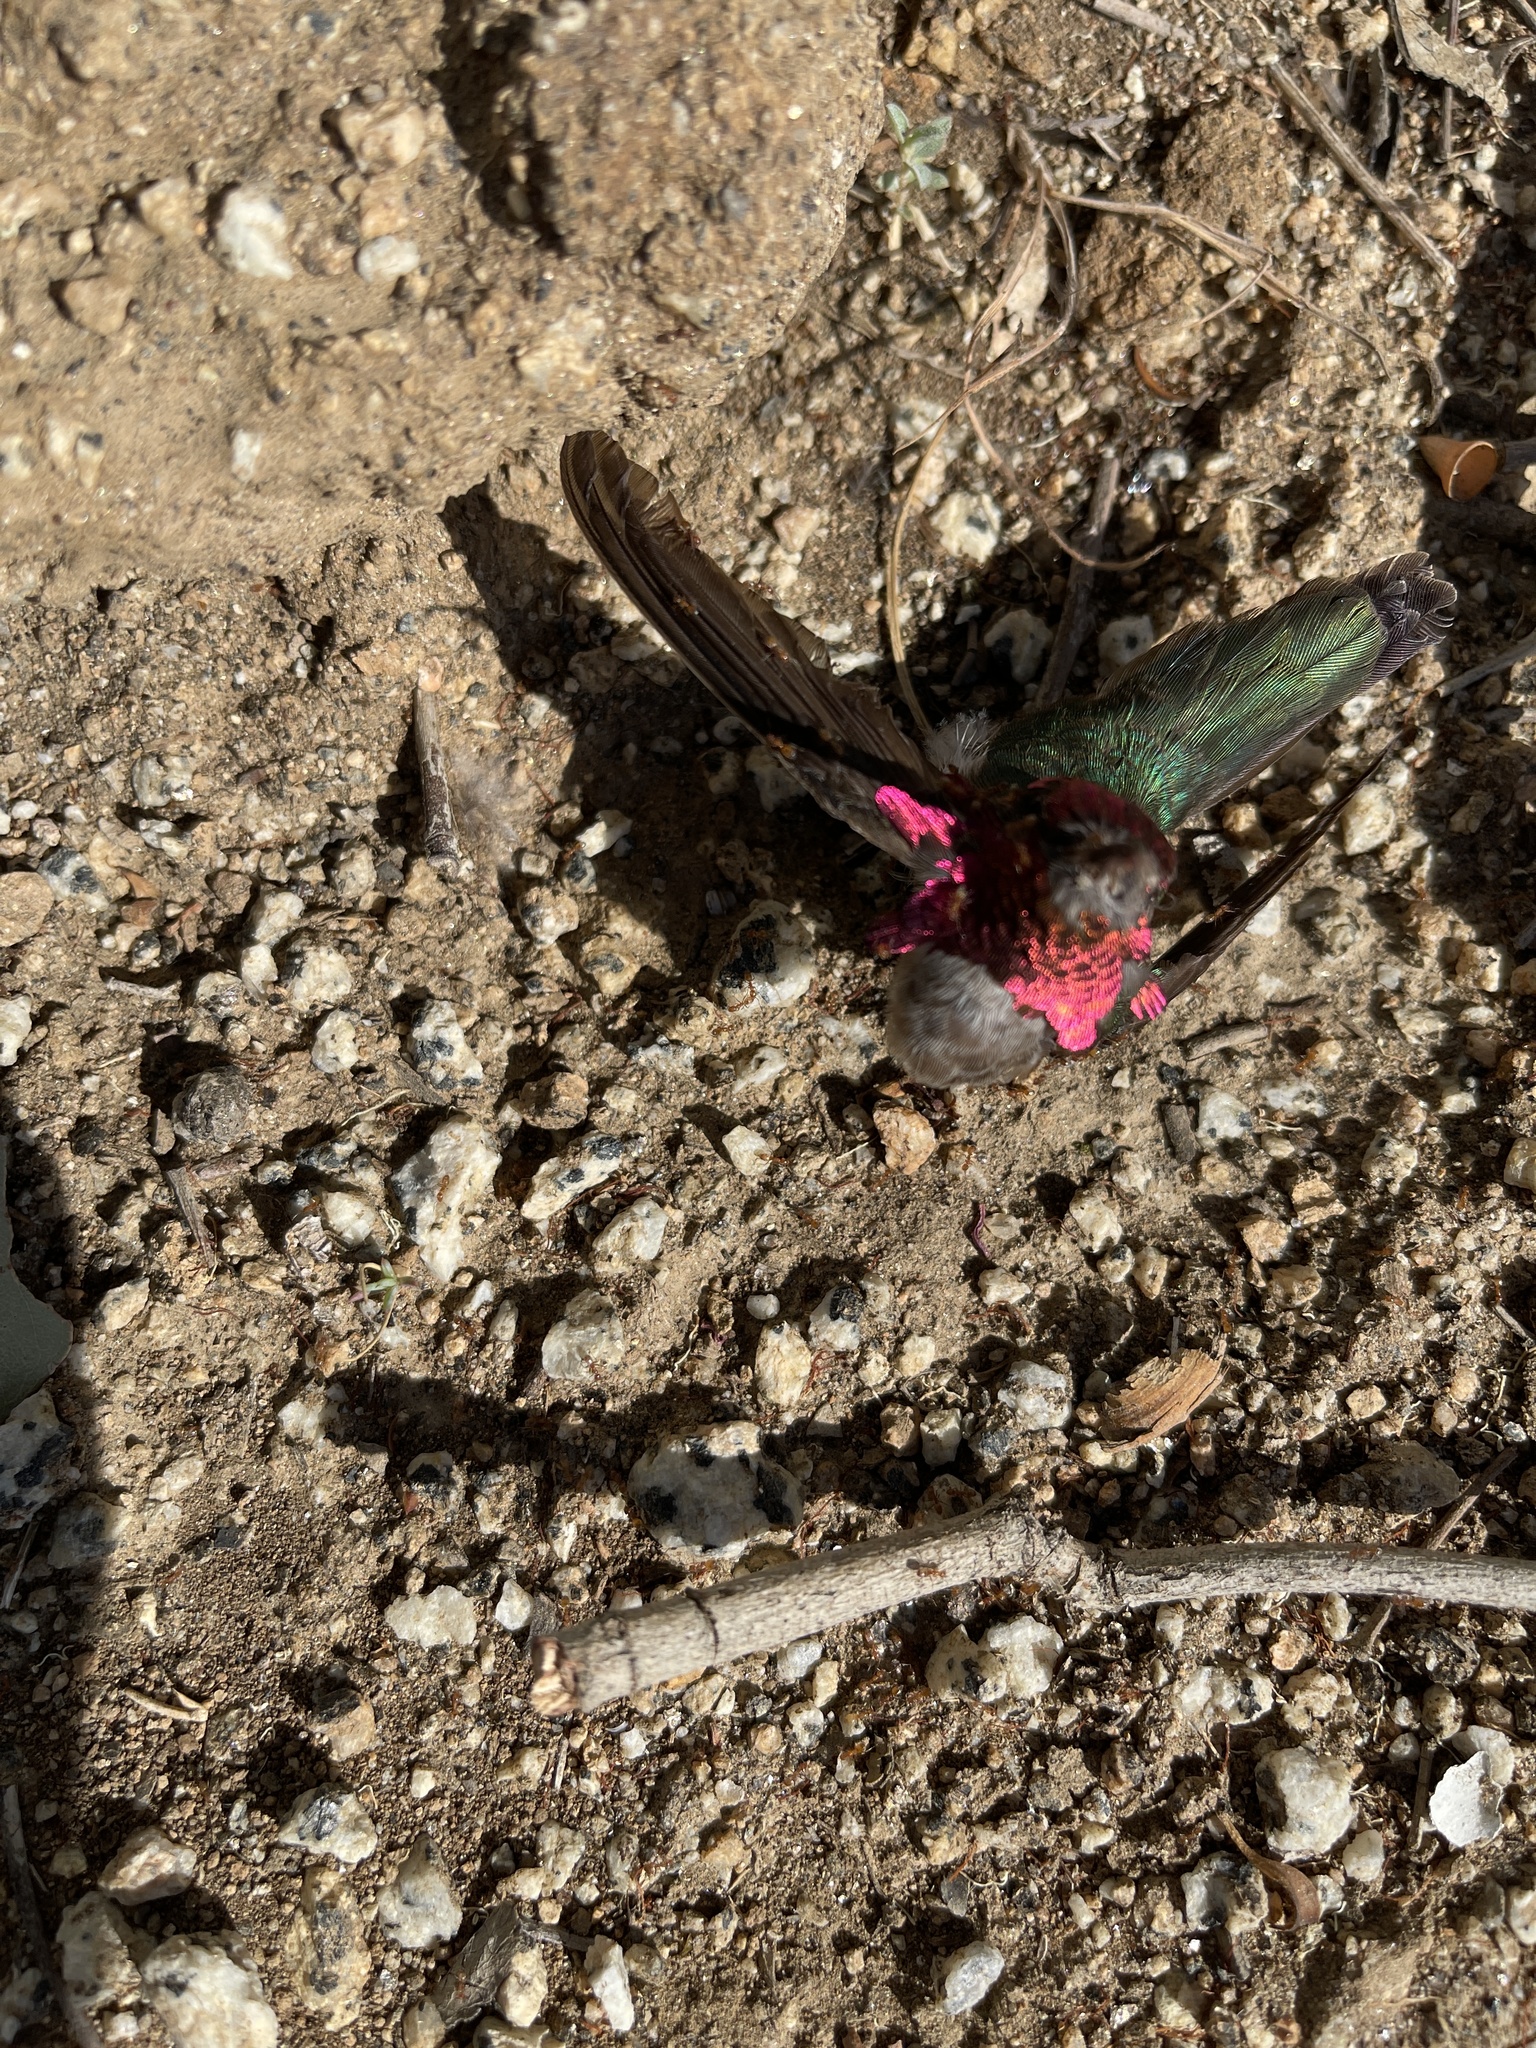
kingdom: Animalia
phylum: Chordata
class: Aves
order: Apodiformes
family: Trochilidae
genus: Calypte
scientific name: Calypte anna
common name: Anna's hummingbird
